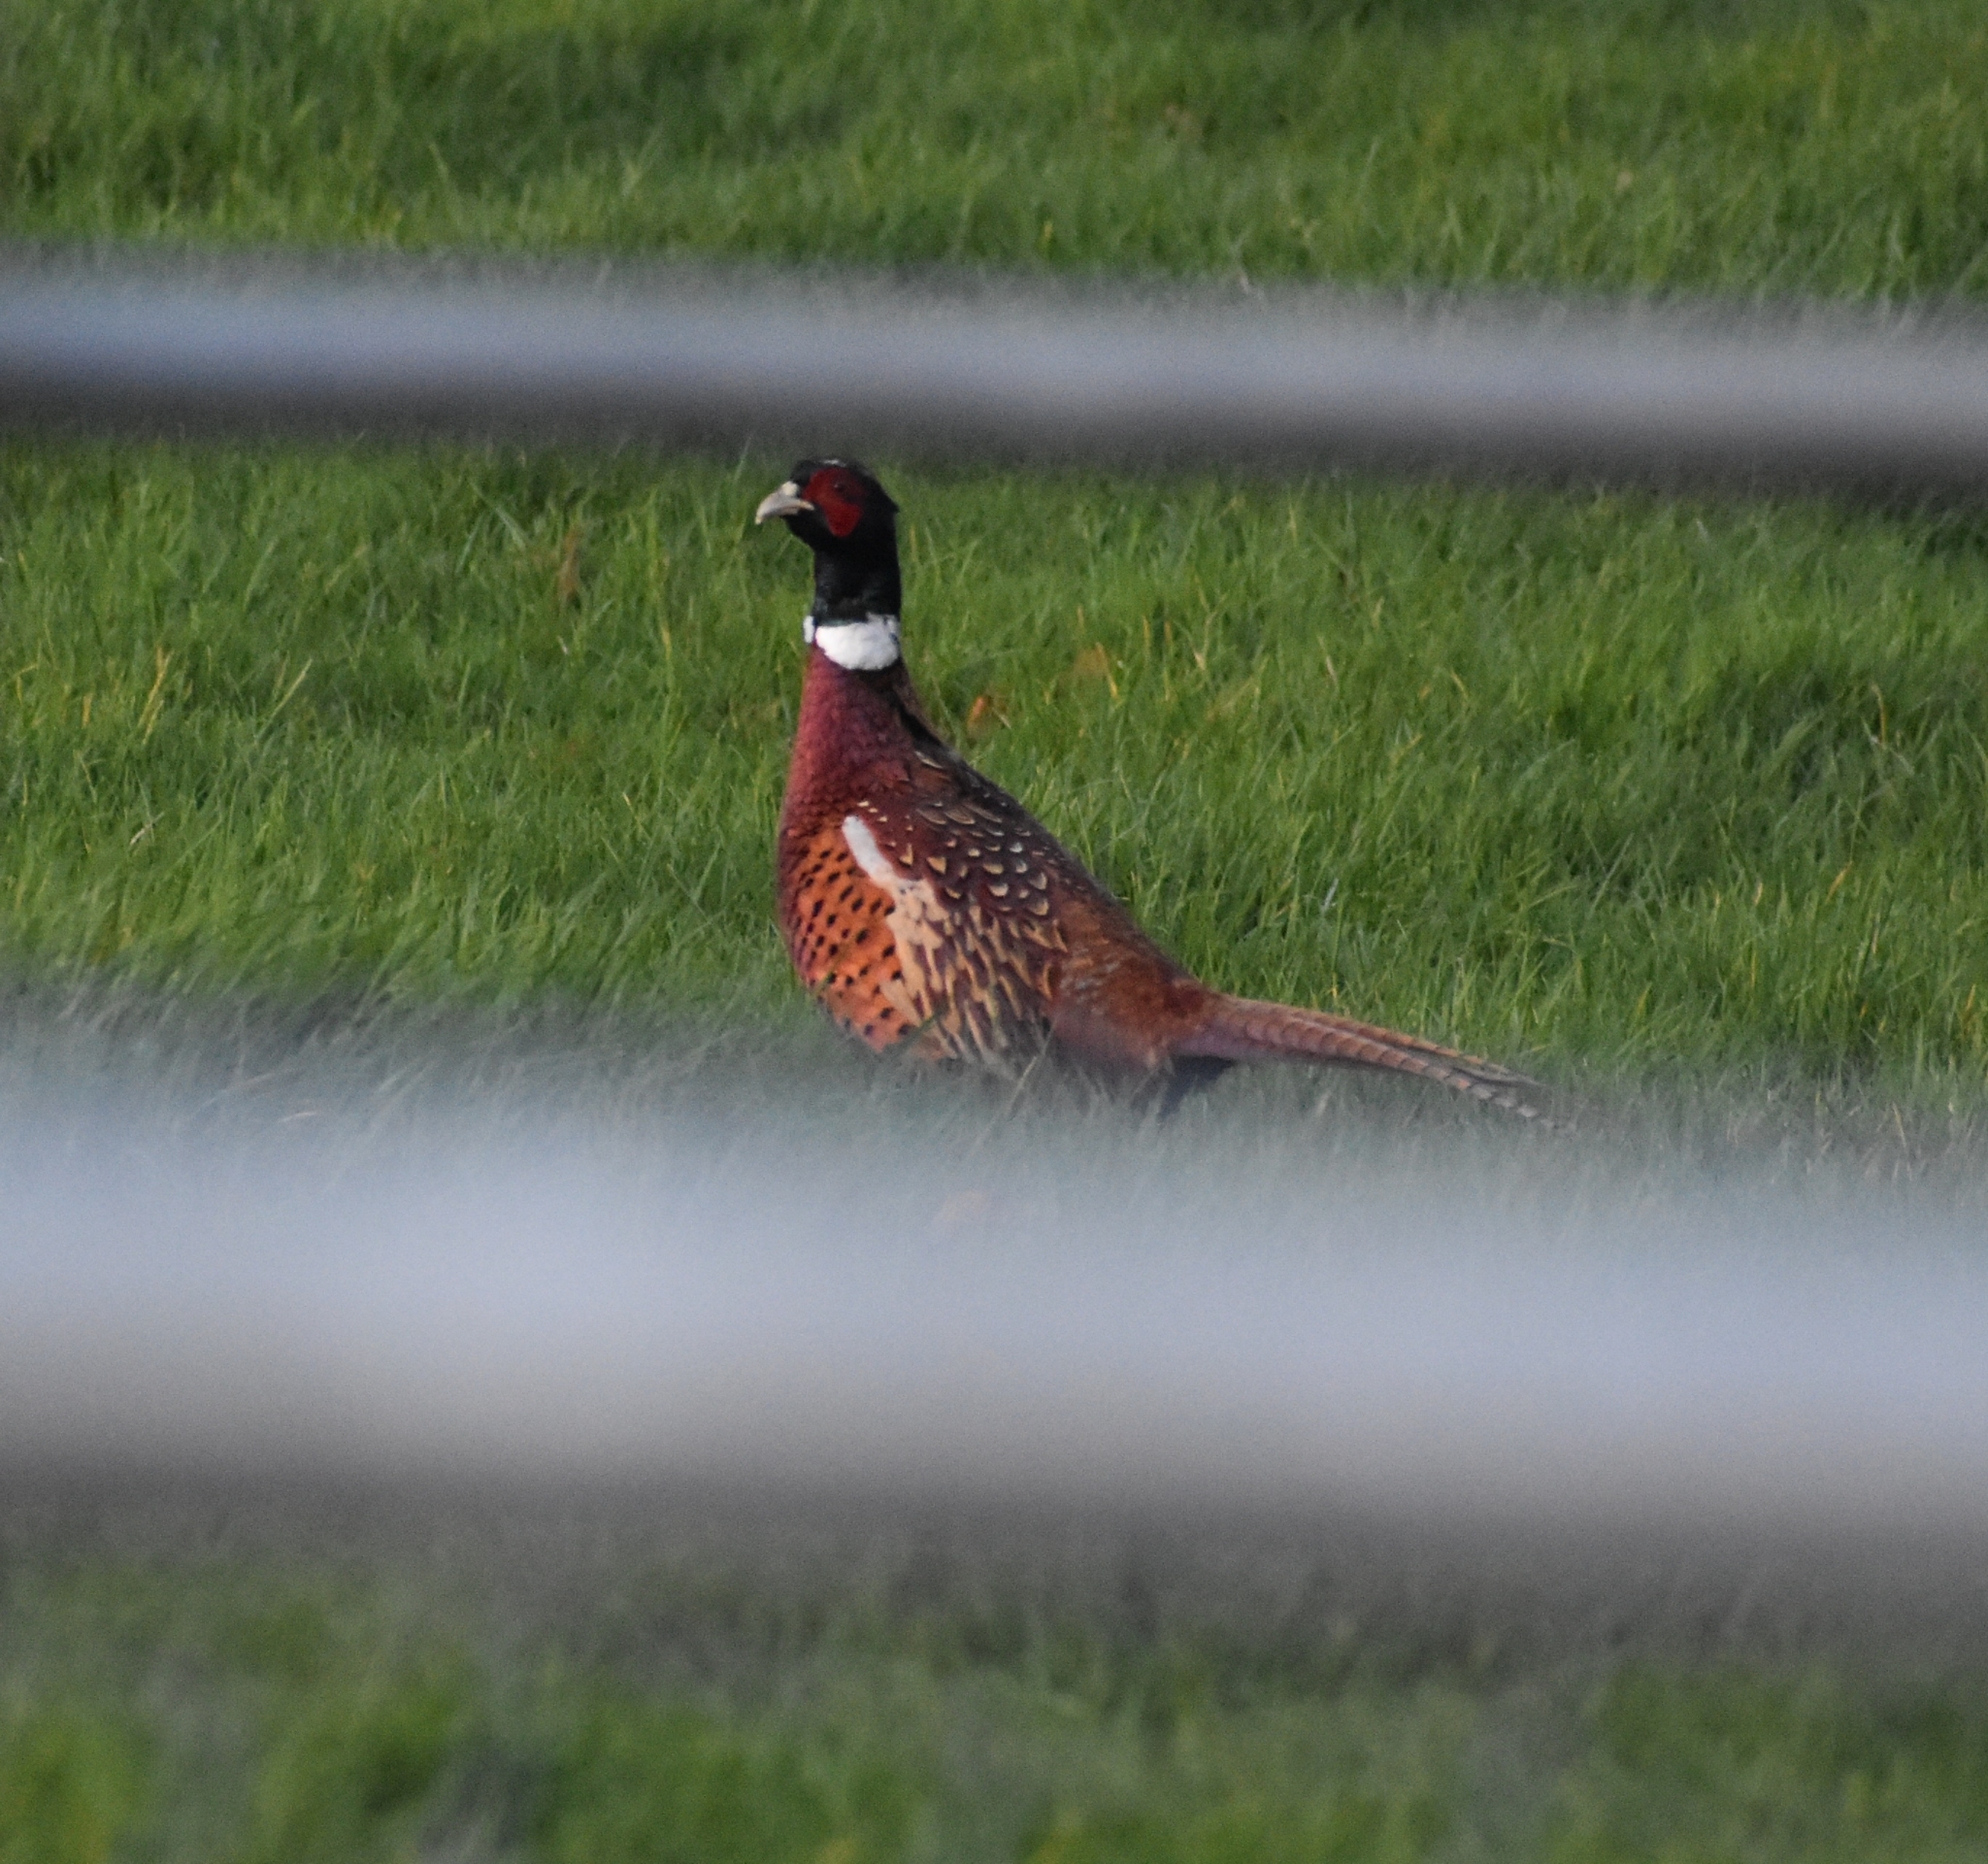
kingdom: Animalia
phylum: Chordata
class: Aves
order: Galliformes
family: Phasianidae
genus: Phasianus
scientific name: Phasianus colchicus
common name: Common pheasant
